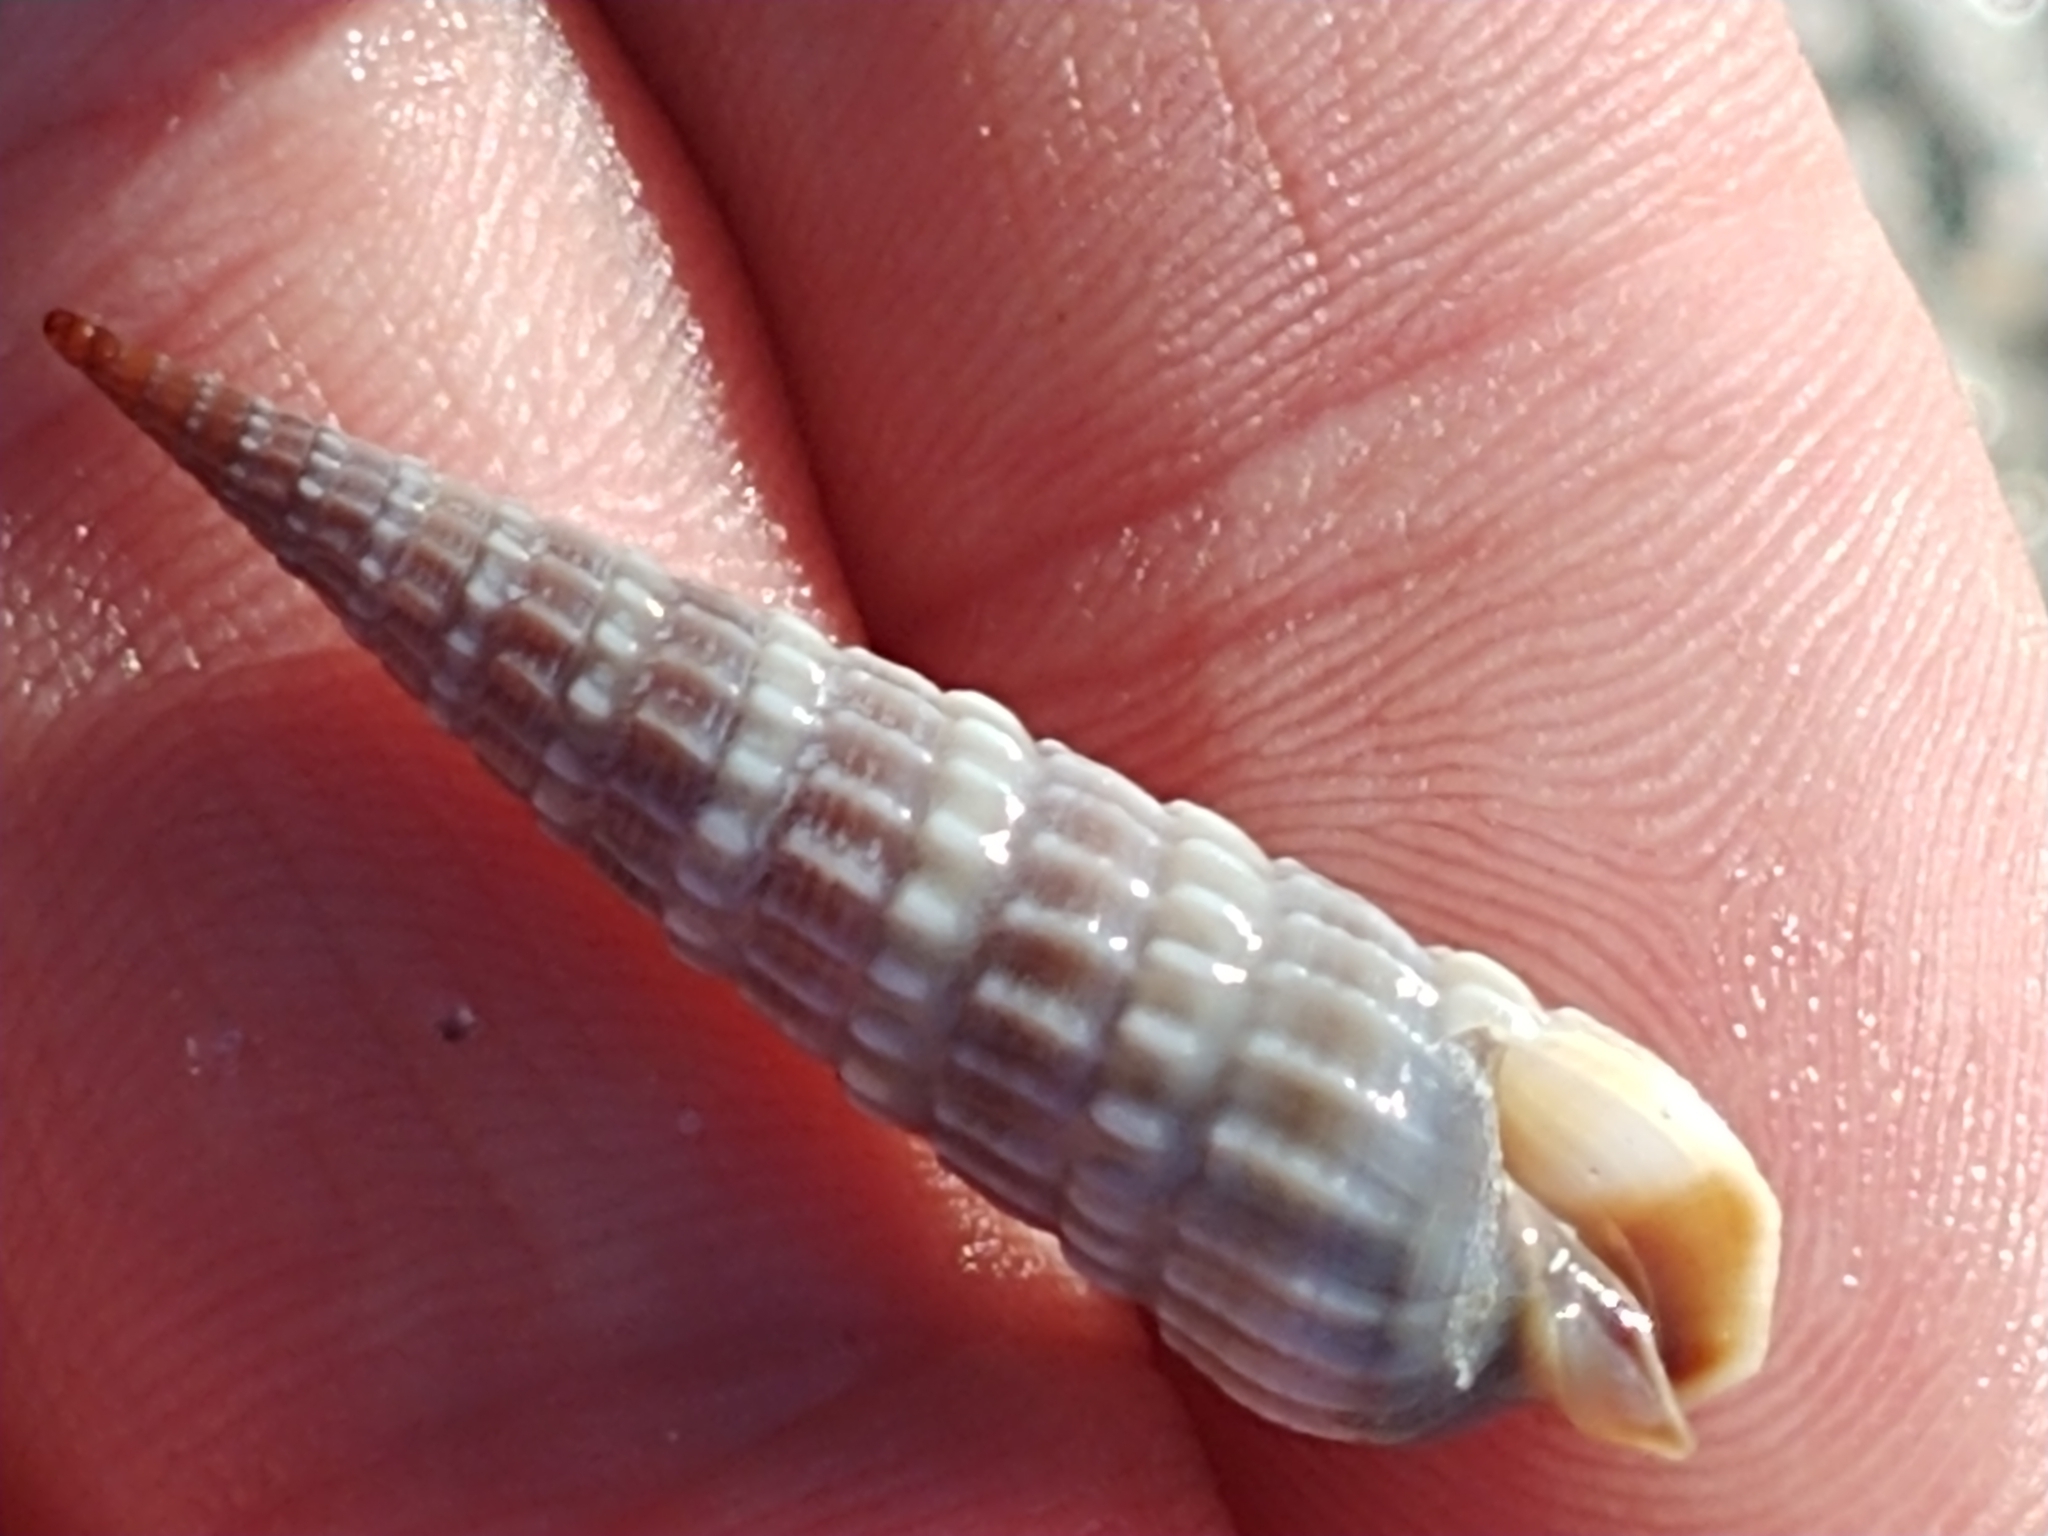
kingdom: Animalia
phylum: Mollusca
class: Gastropoda
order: Neogastropoda
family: Terebridae
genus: Neoterebra
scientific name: Neoterebra dislocata
